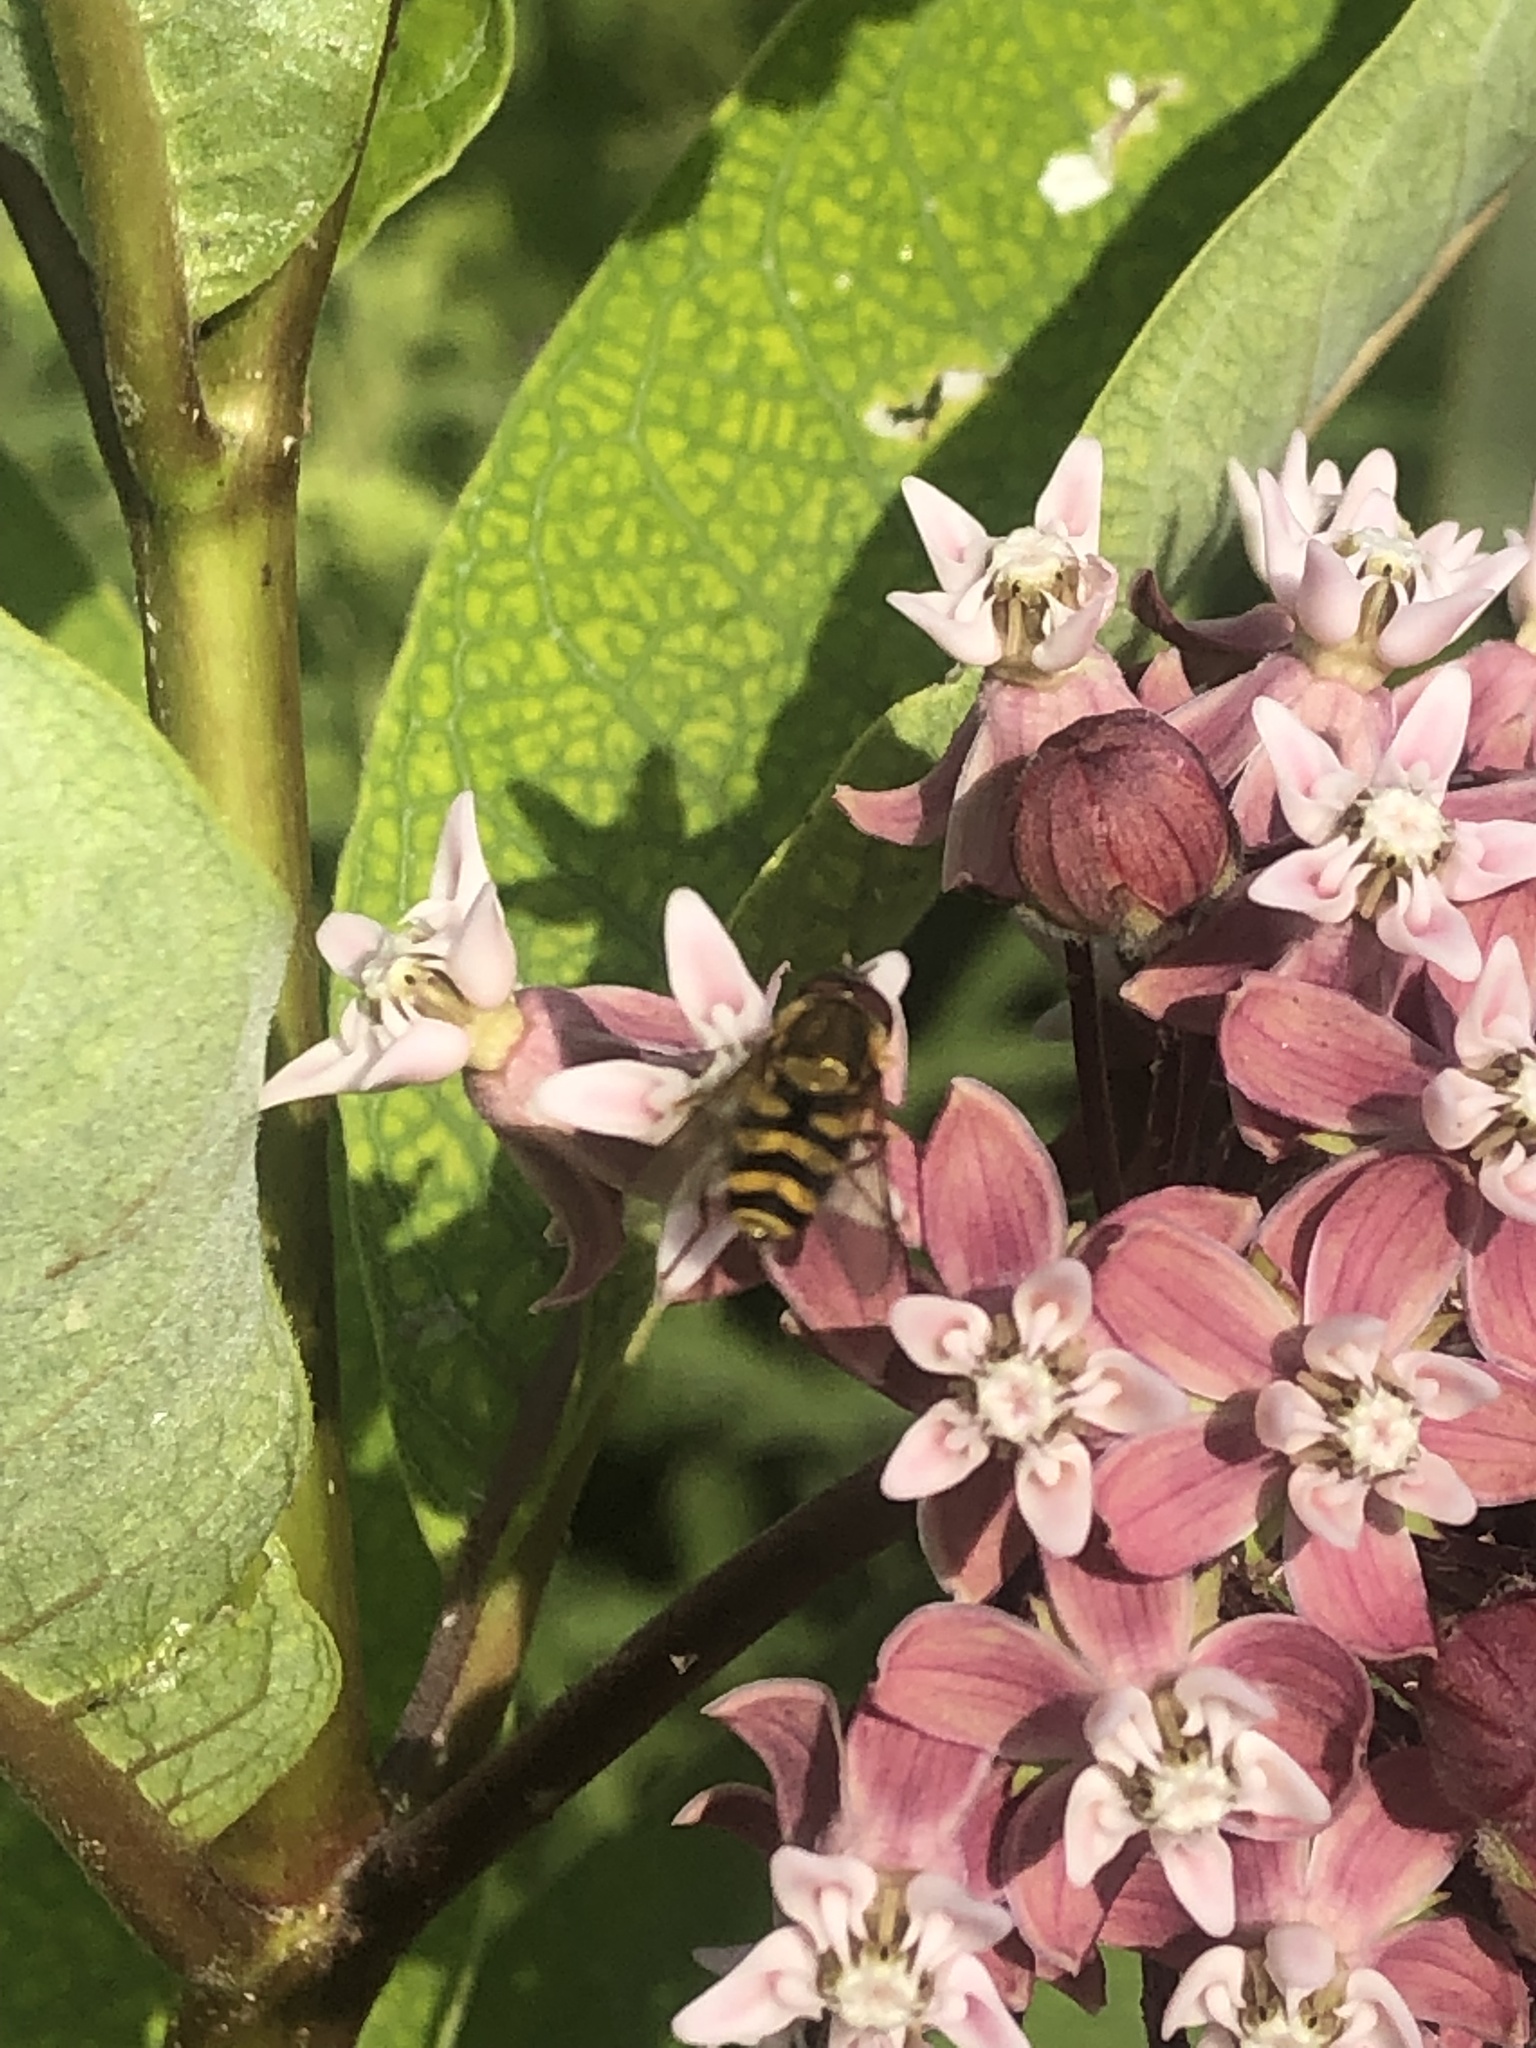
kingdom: Animalia
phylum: Arthropoda
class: Insecta
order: Diptera
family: Syrphidae
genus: Syrphus
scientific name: Syrphus
